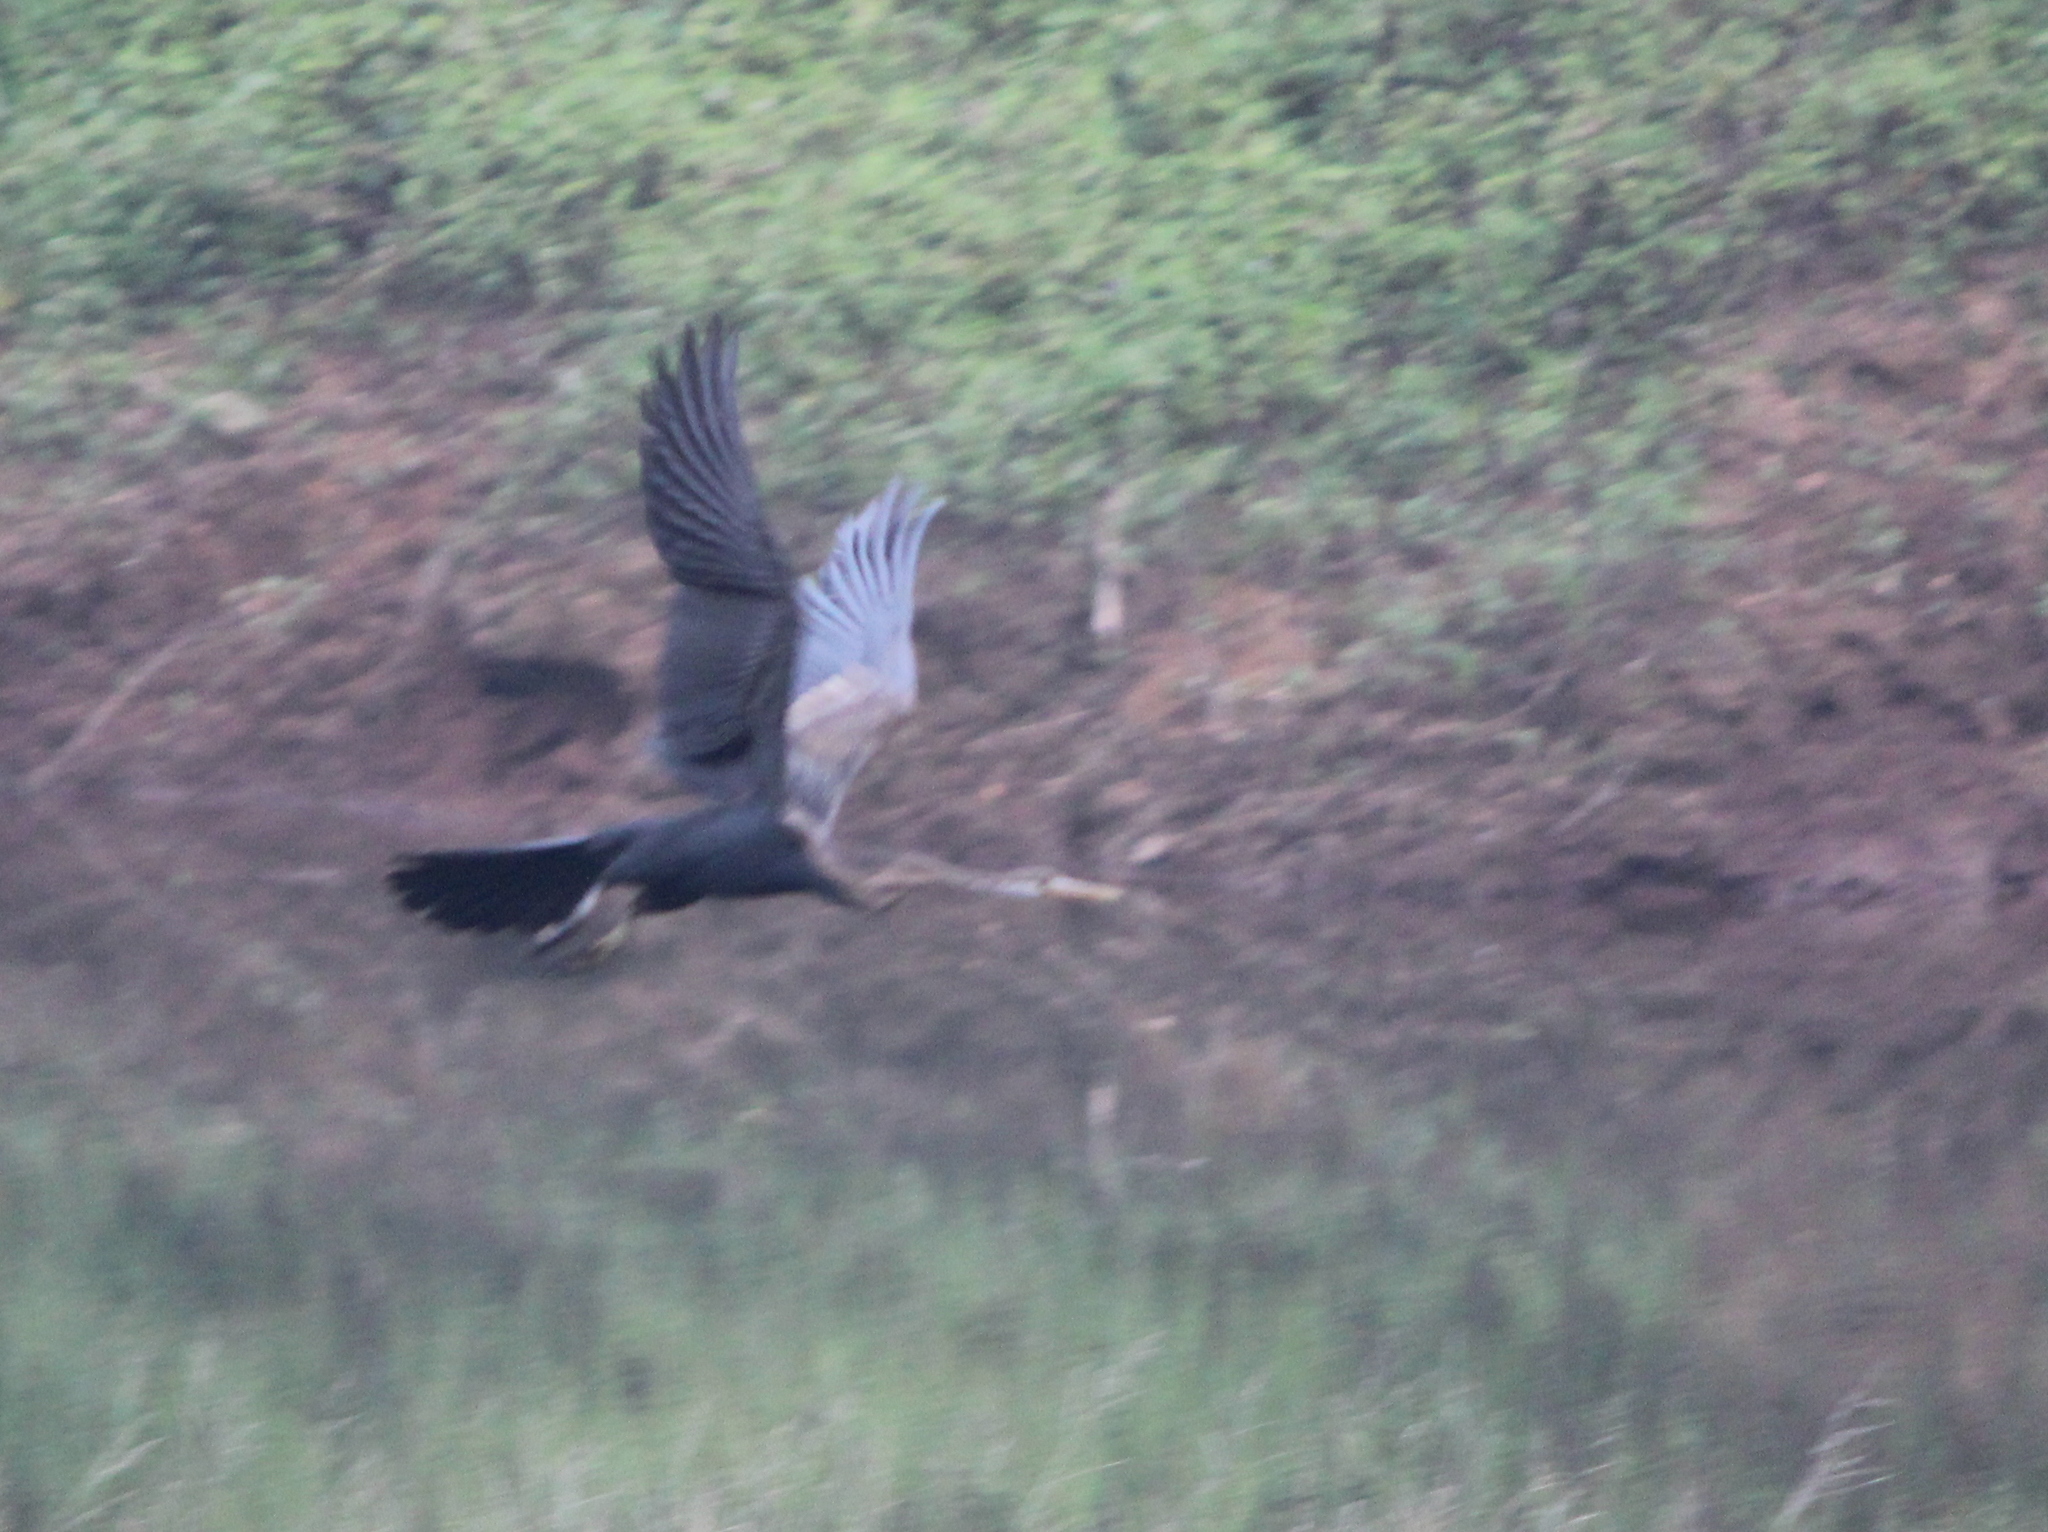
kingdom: Animalia
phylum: Chordata
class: Aves
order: Suliformes
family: Anhingidae
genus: Anhinga
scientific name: Anhinga melanogaster
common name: Oriental darter
